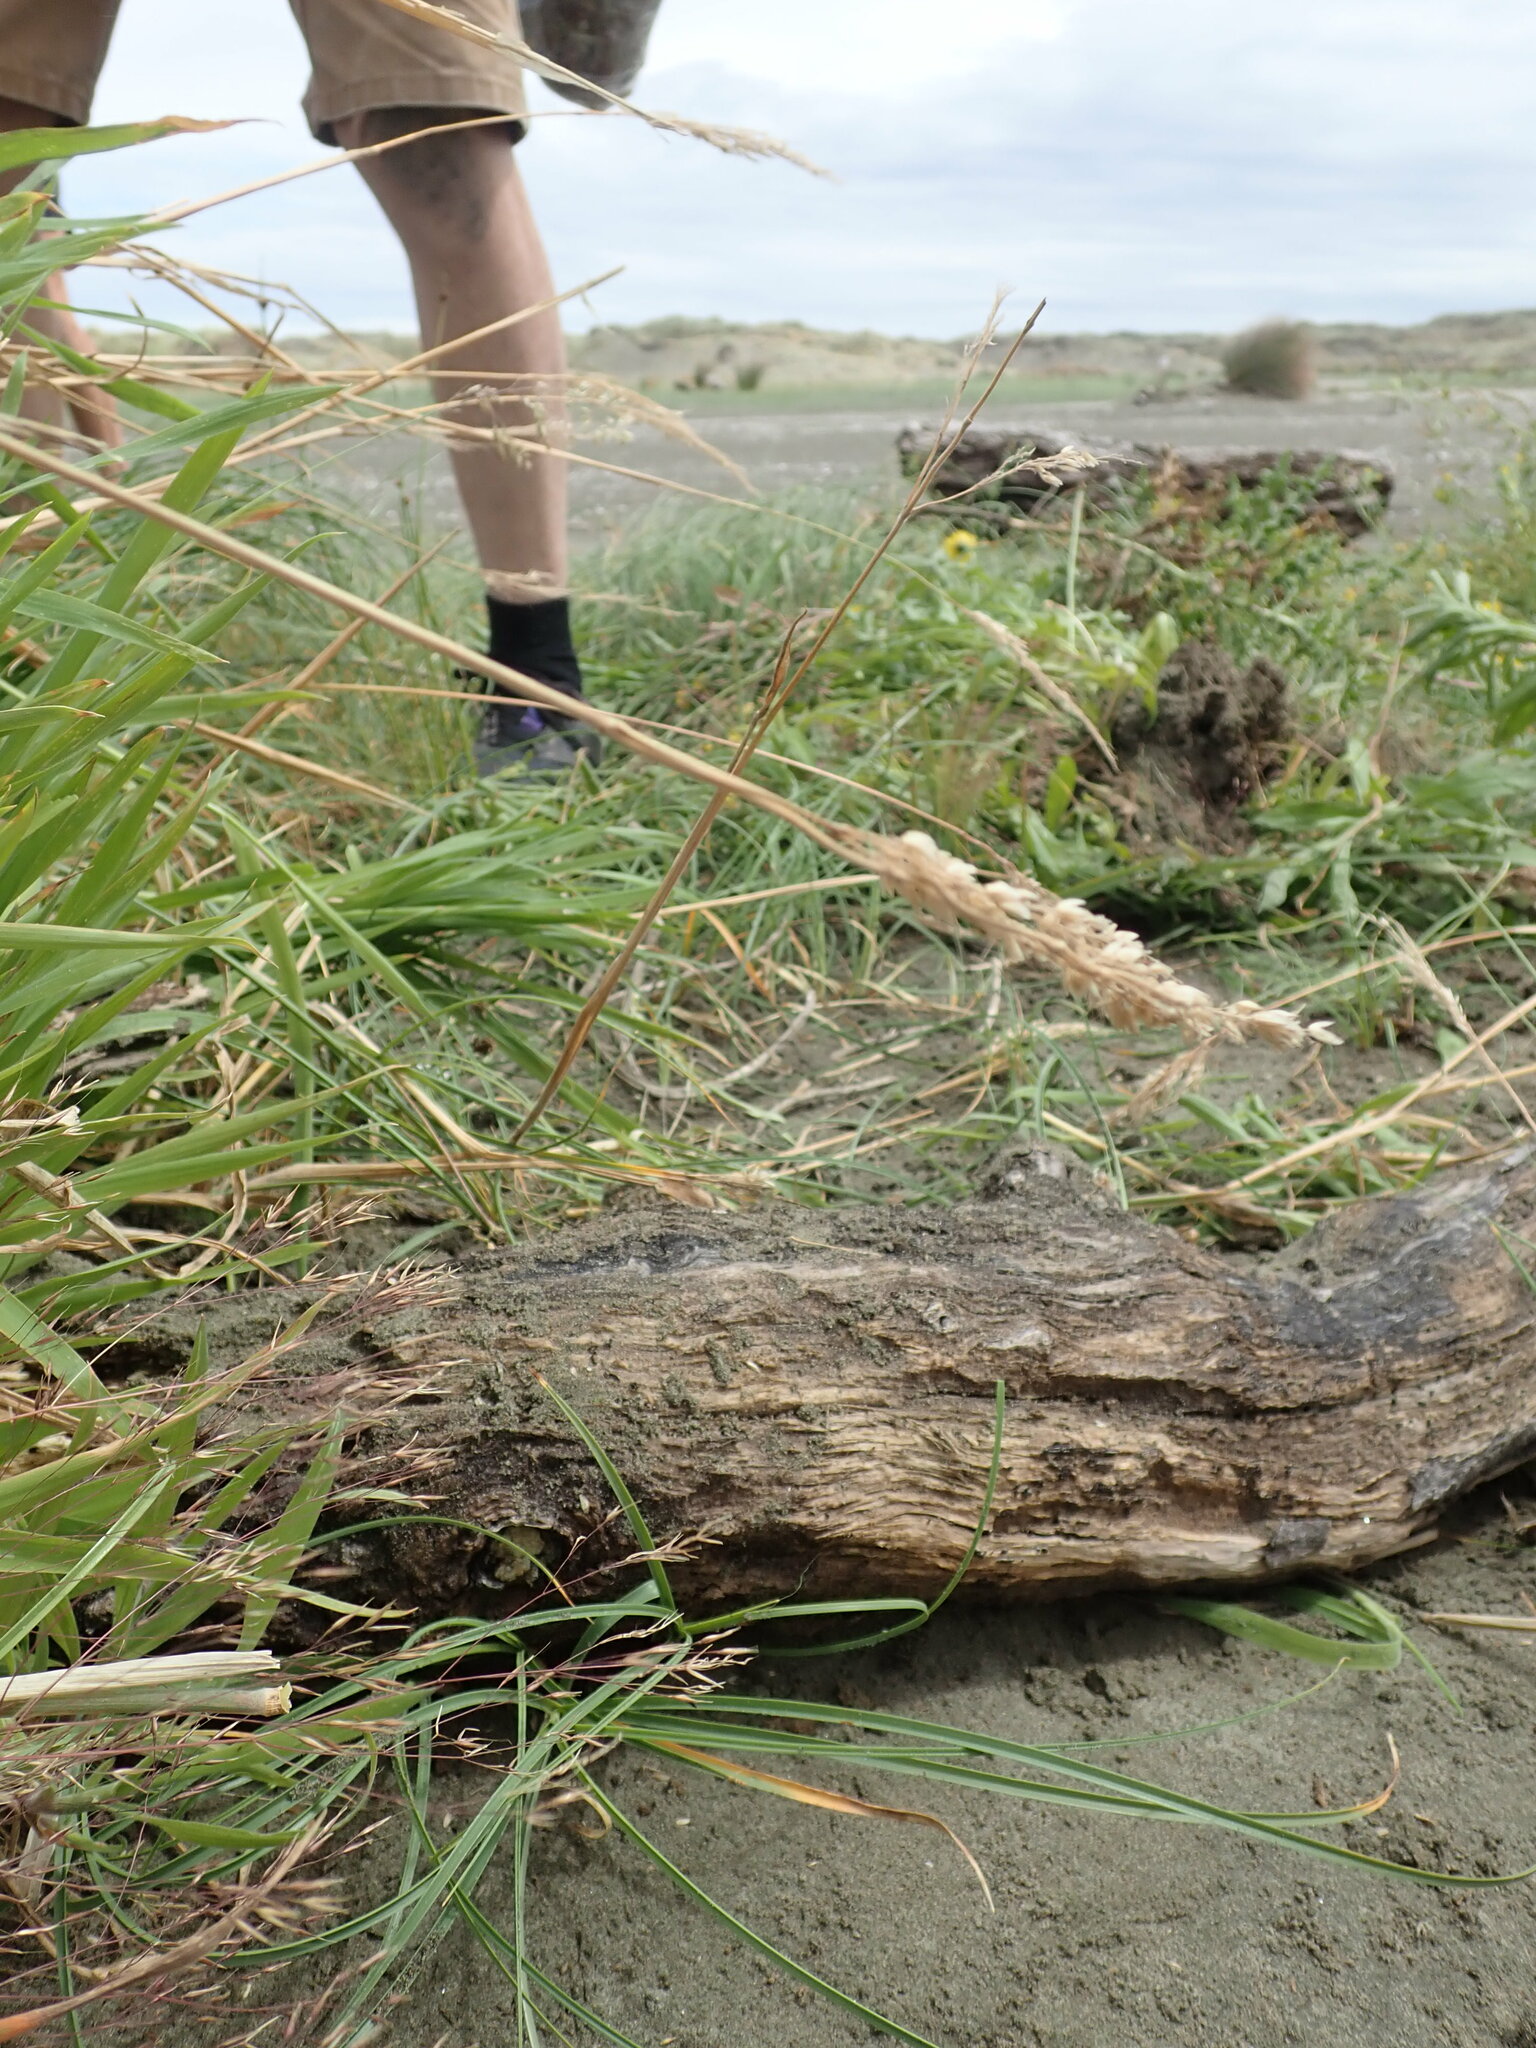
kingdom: Animalia
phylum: Arthropoda
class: Insecta
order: Dermaptera
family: Anisolabididae
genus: Anisolabis
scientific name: Anisolabis littorea
